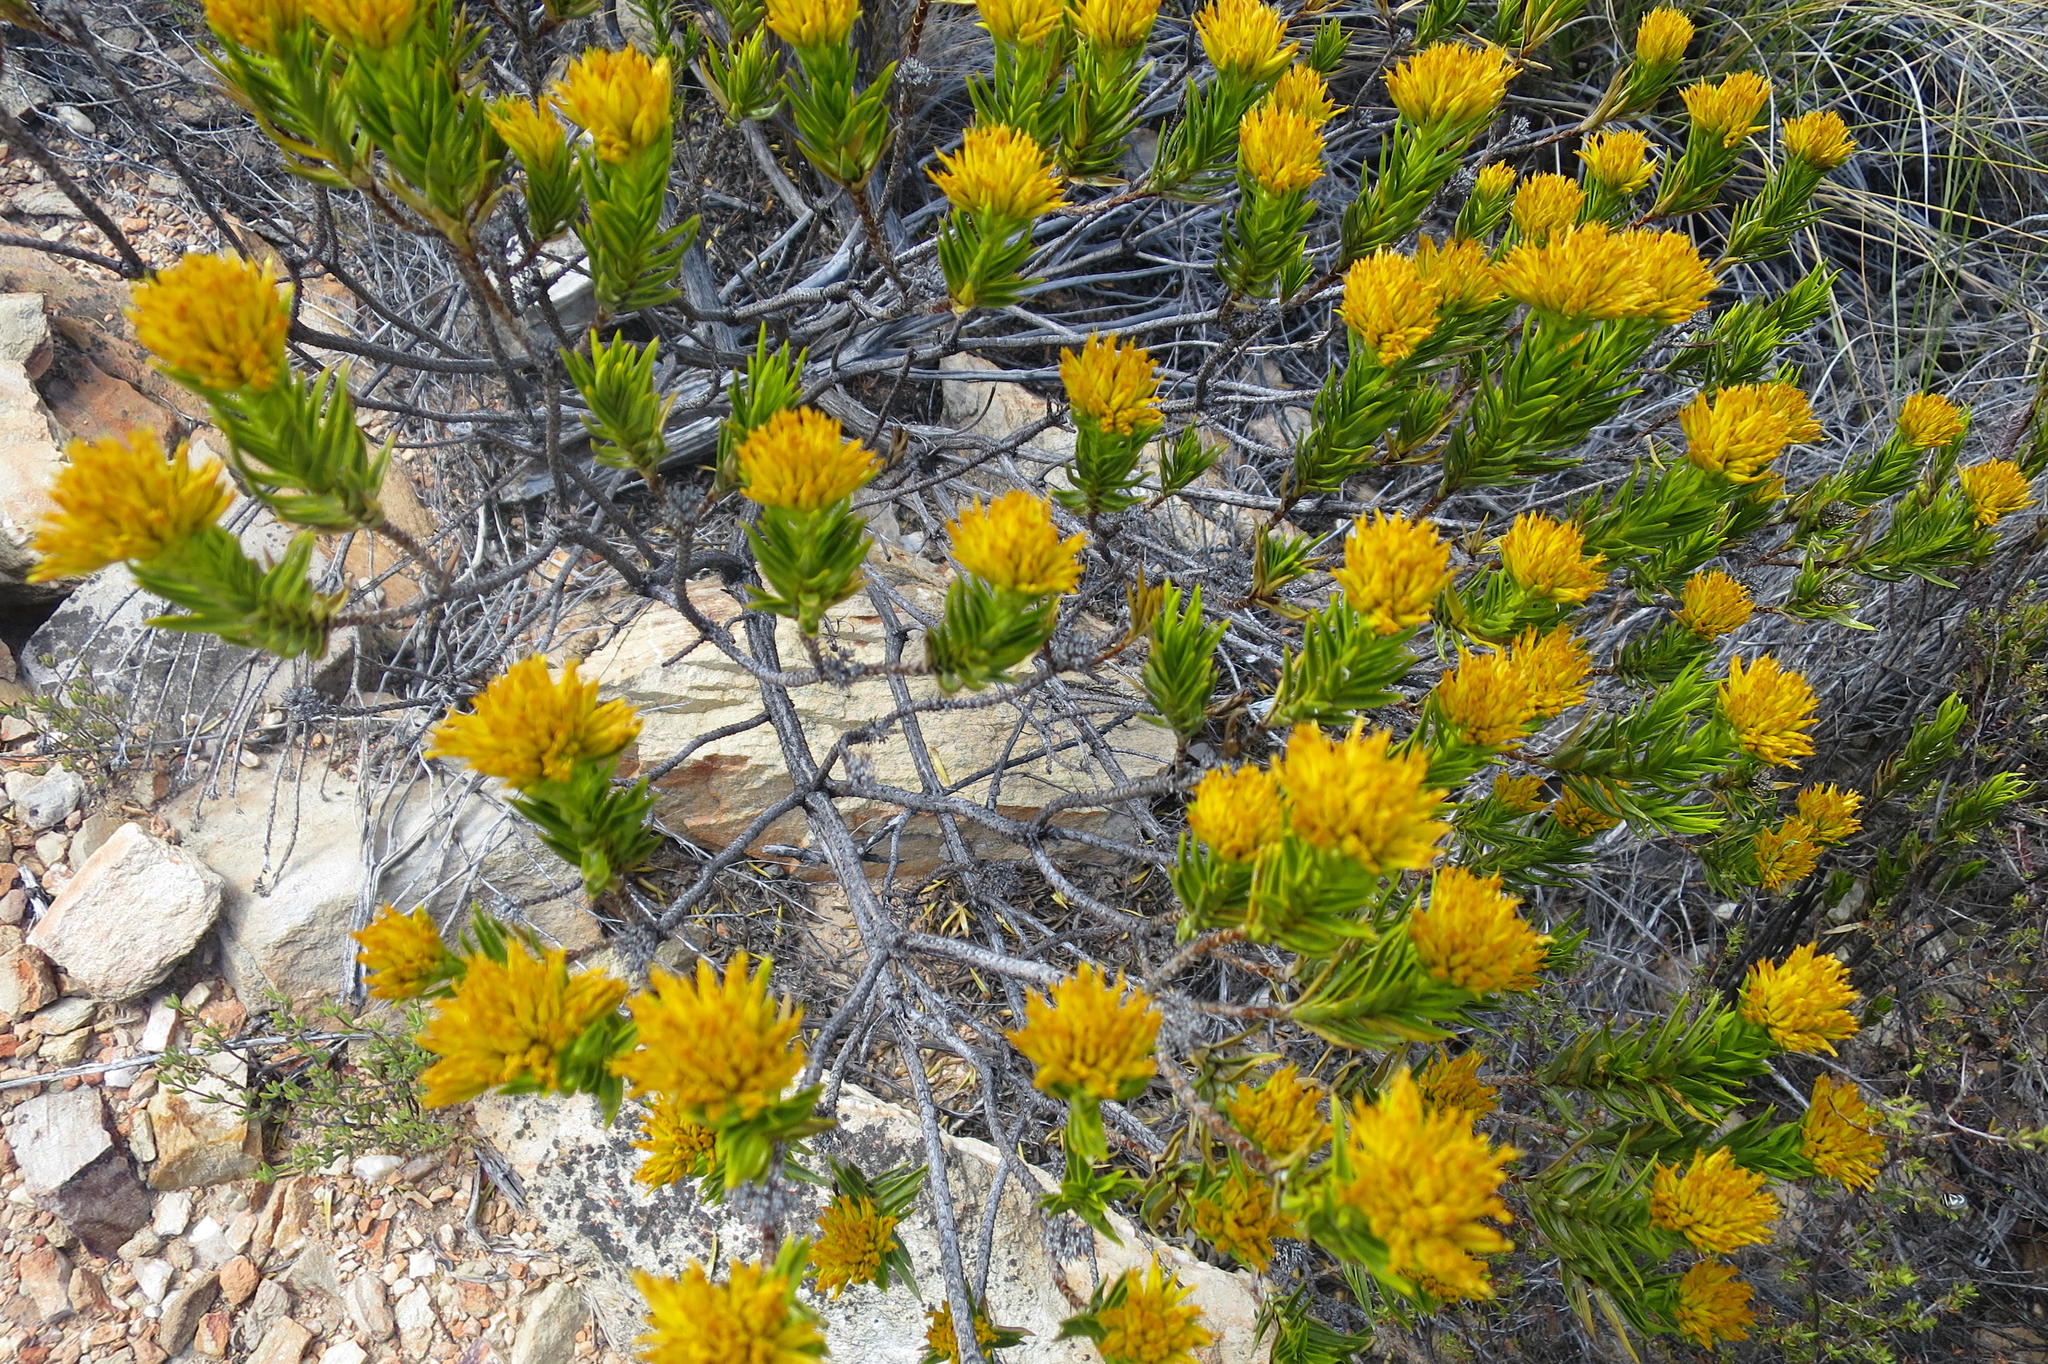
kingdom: Plantae
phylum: Tracheophyta
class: Magnoliopsida
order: Asterales
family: Asteraceae
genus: Pteronia
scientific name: Pteronia fasciculata
